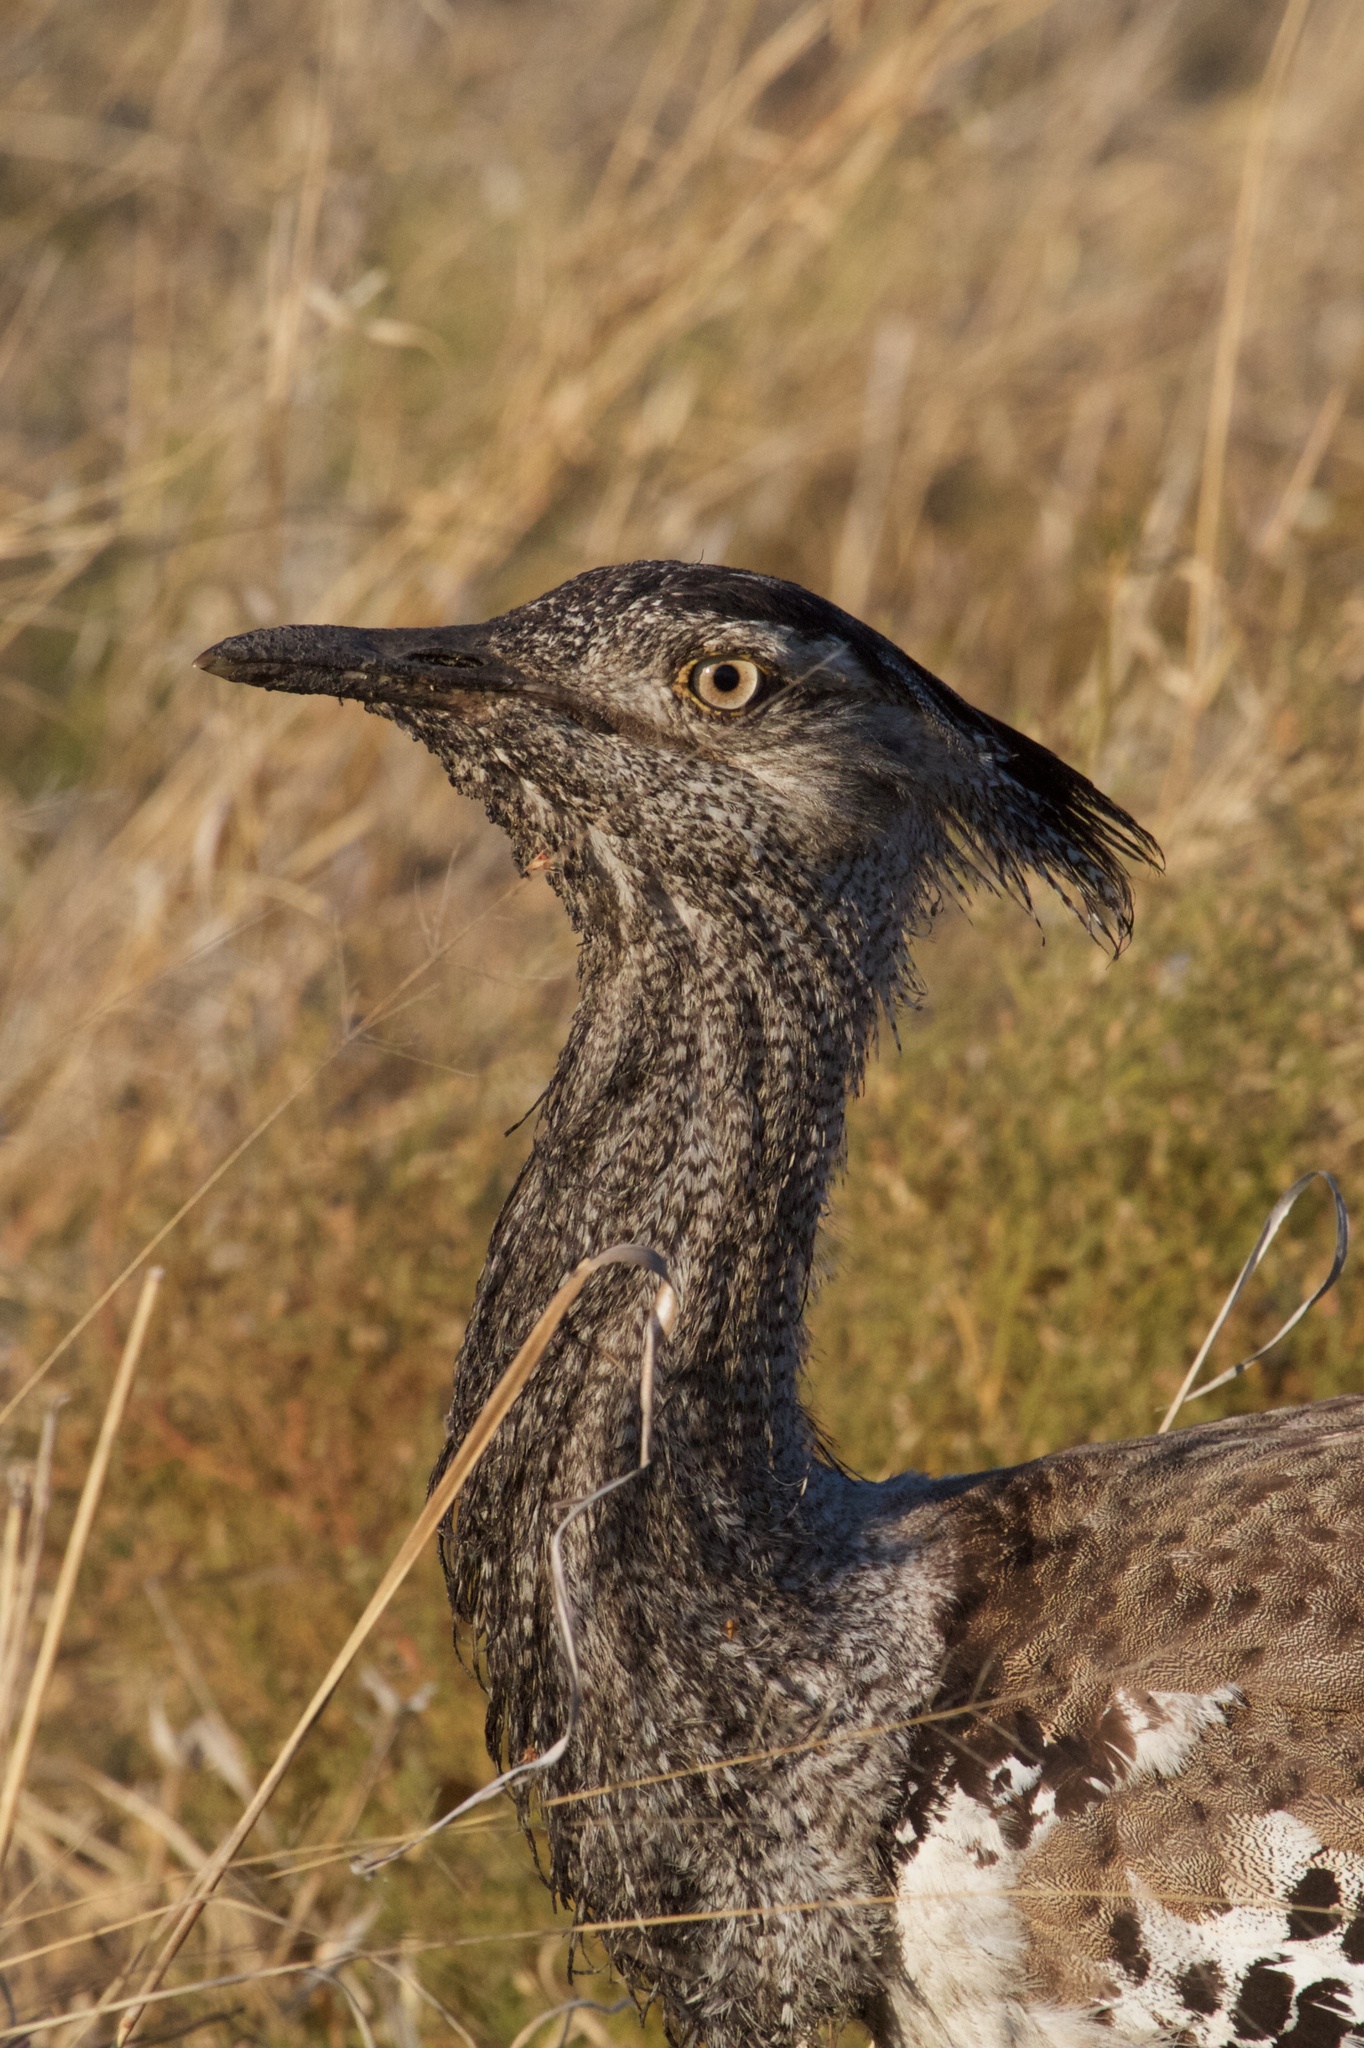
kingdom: Animalia
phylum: Chordata
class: Aves
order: Otidiformes
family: Otididae
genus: Ardeotis
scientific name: Ardeotis kori
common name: Kori bustard
